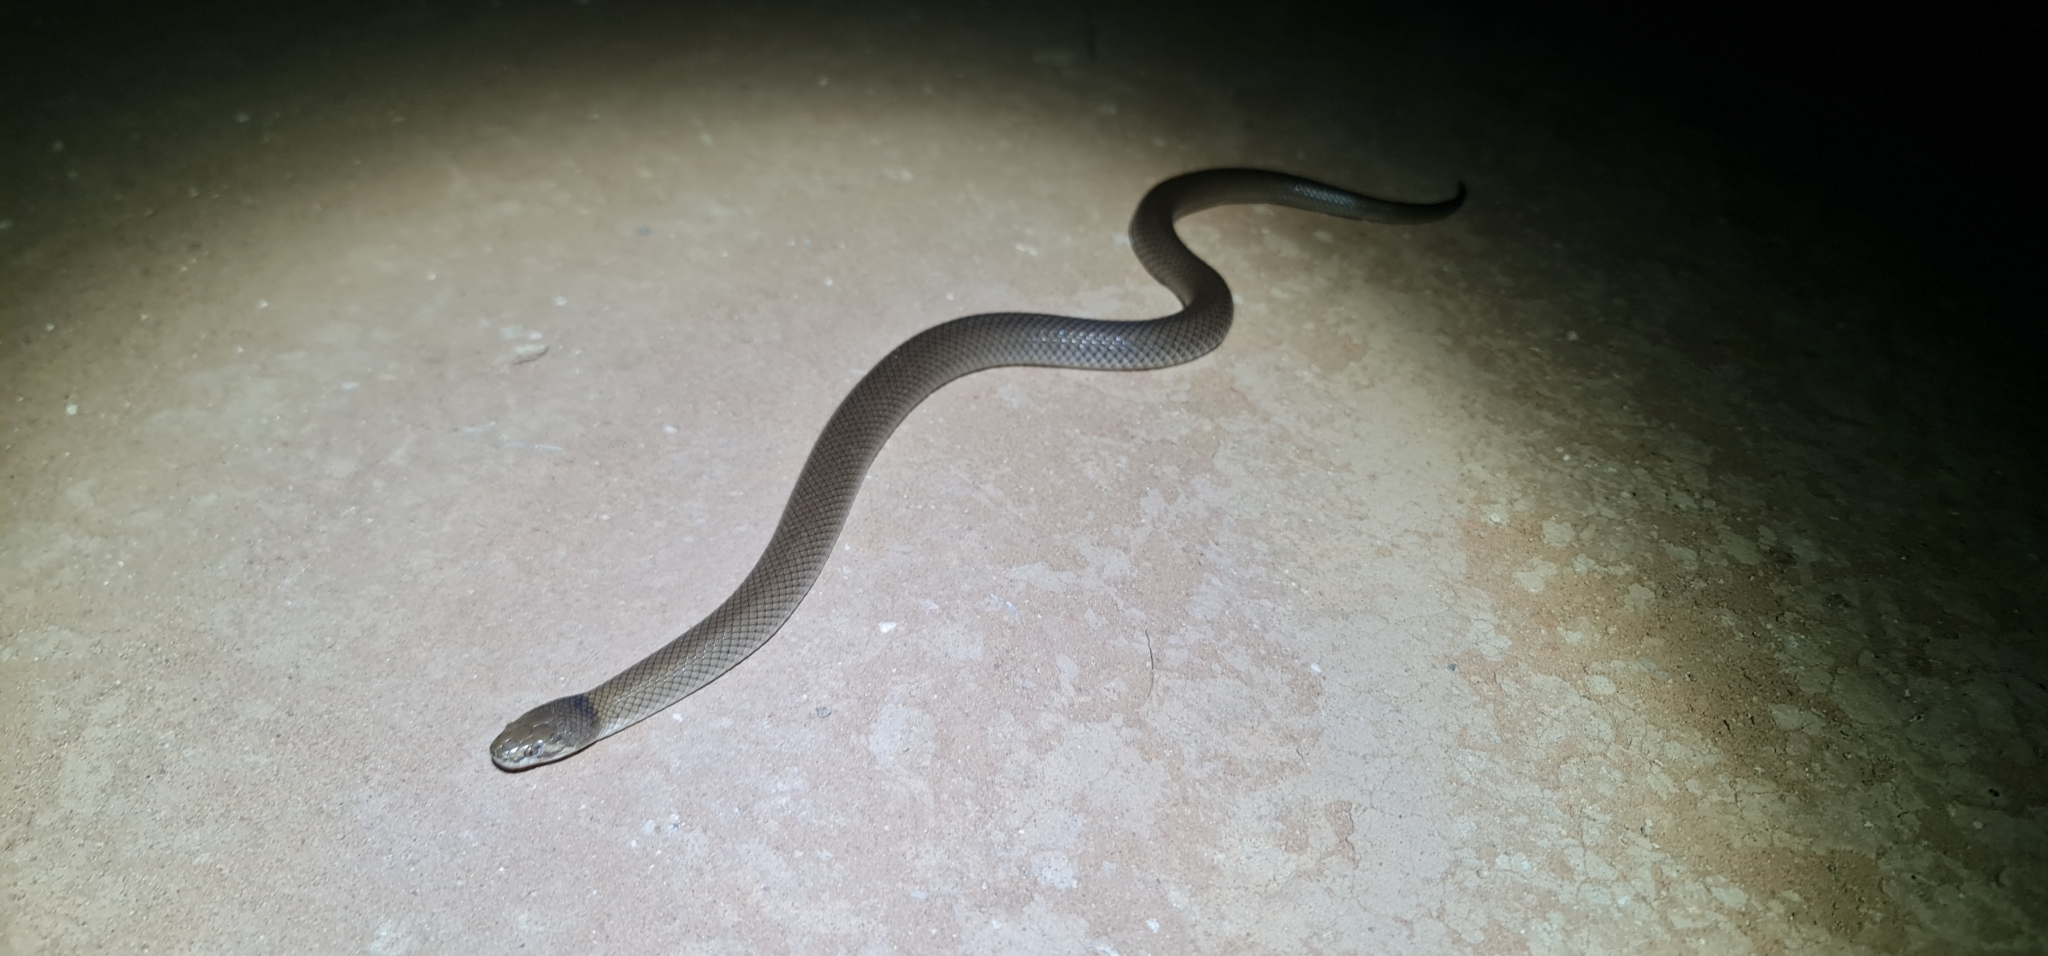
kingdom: Animalia
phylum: Chordata
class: Squamata
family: Elapidae
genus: Suta
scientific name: Suta suta
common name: Curl snake
